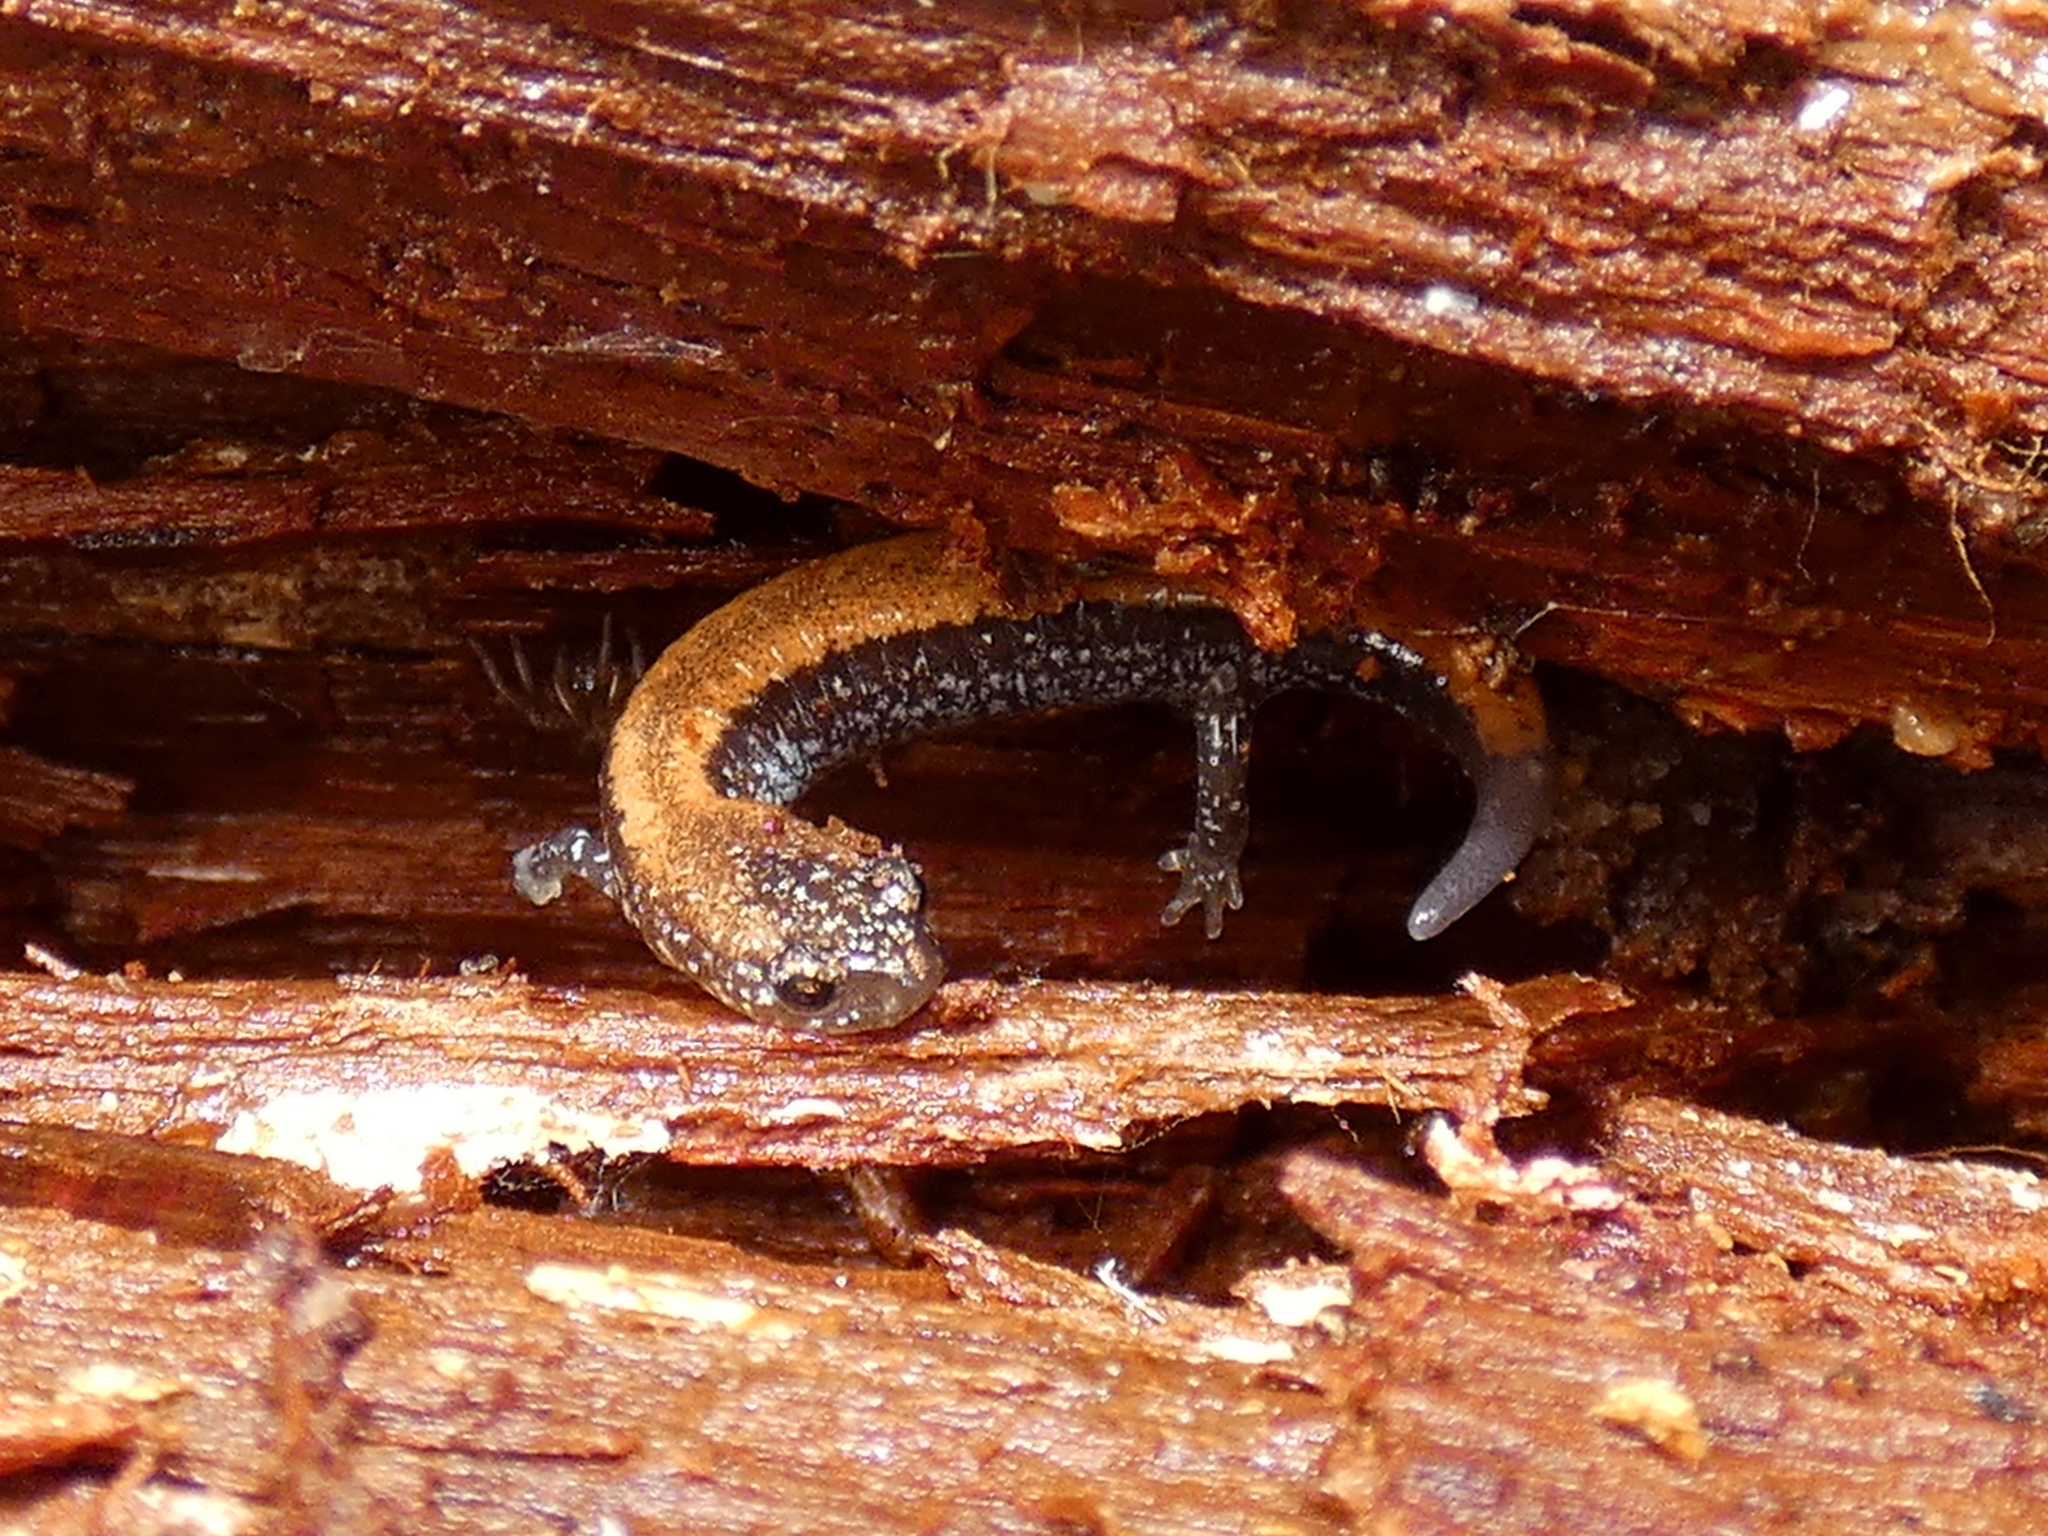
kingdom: Animalia
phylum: Chordata
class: Amphibia
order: Caudata
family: Plethodontidae
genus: Plethodon
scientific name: Plethodon cinereus
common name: Redback salamander
